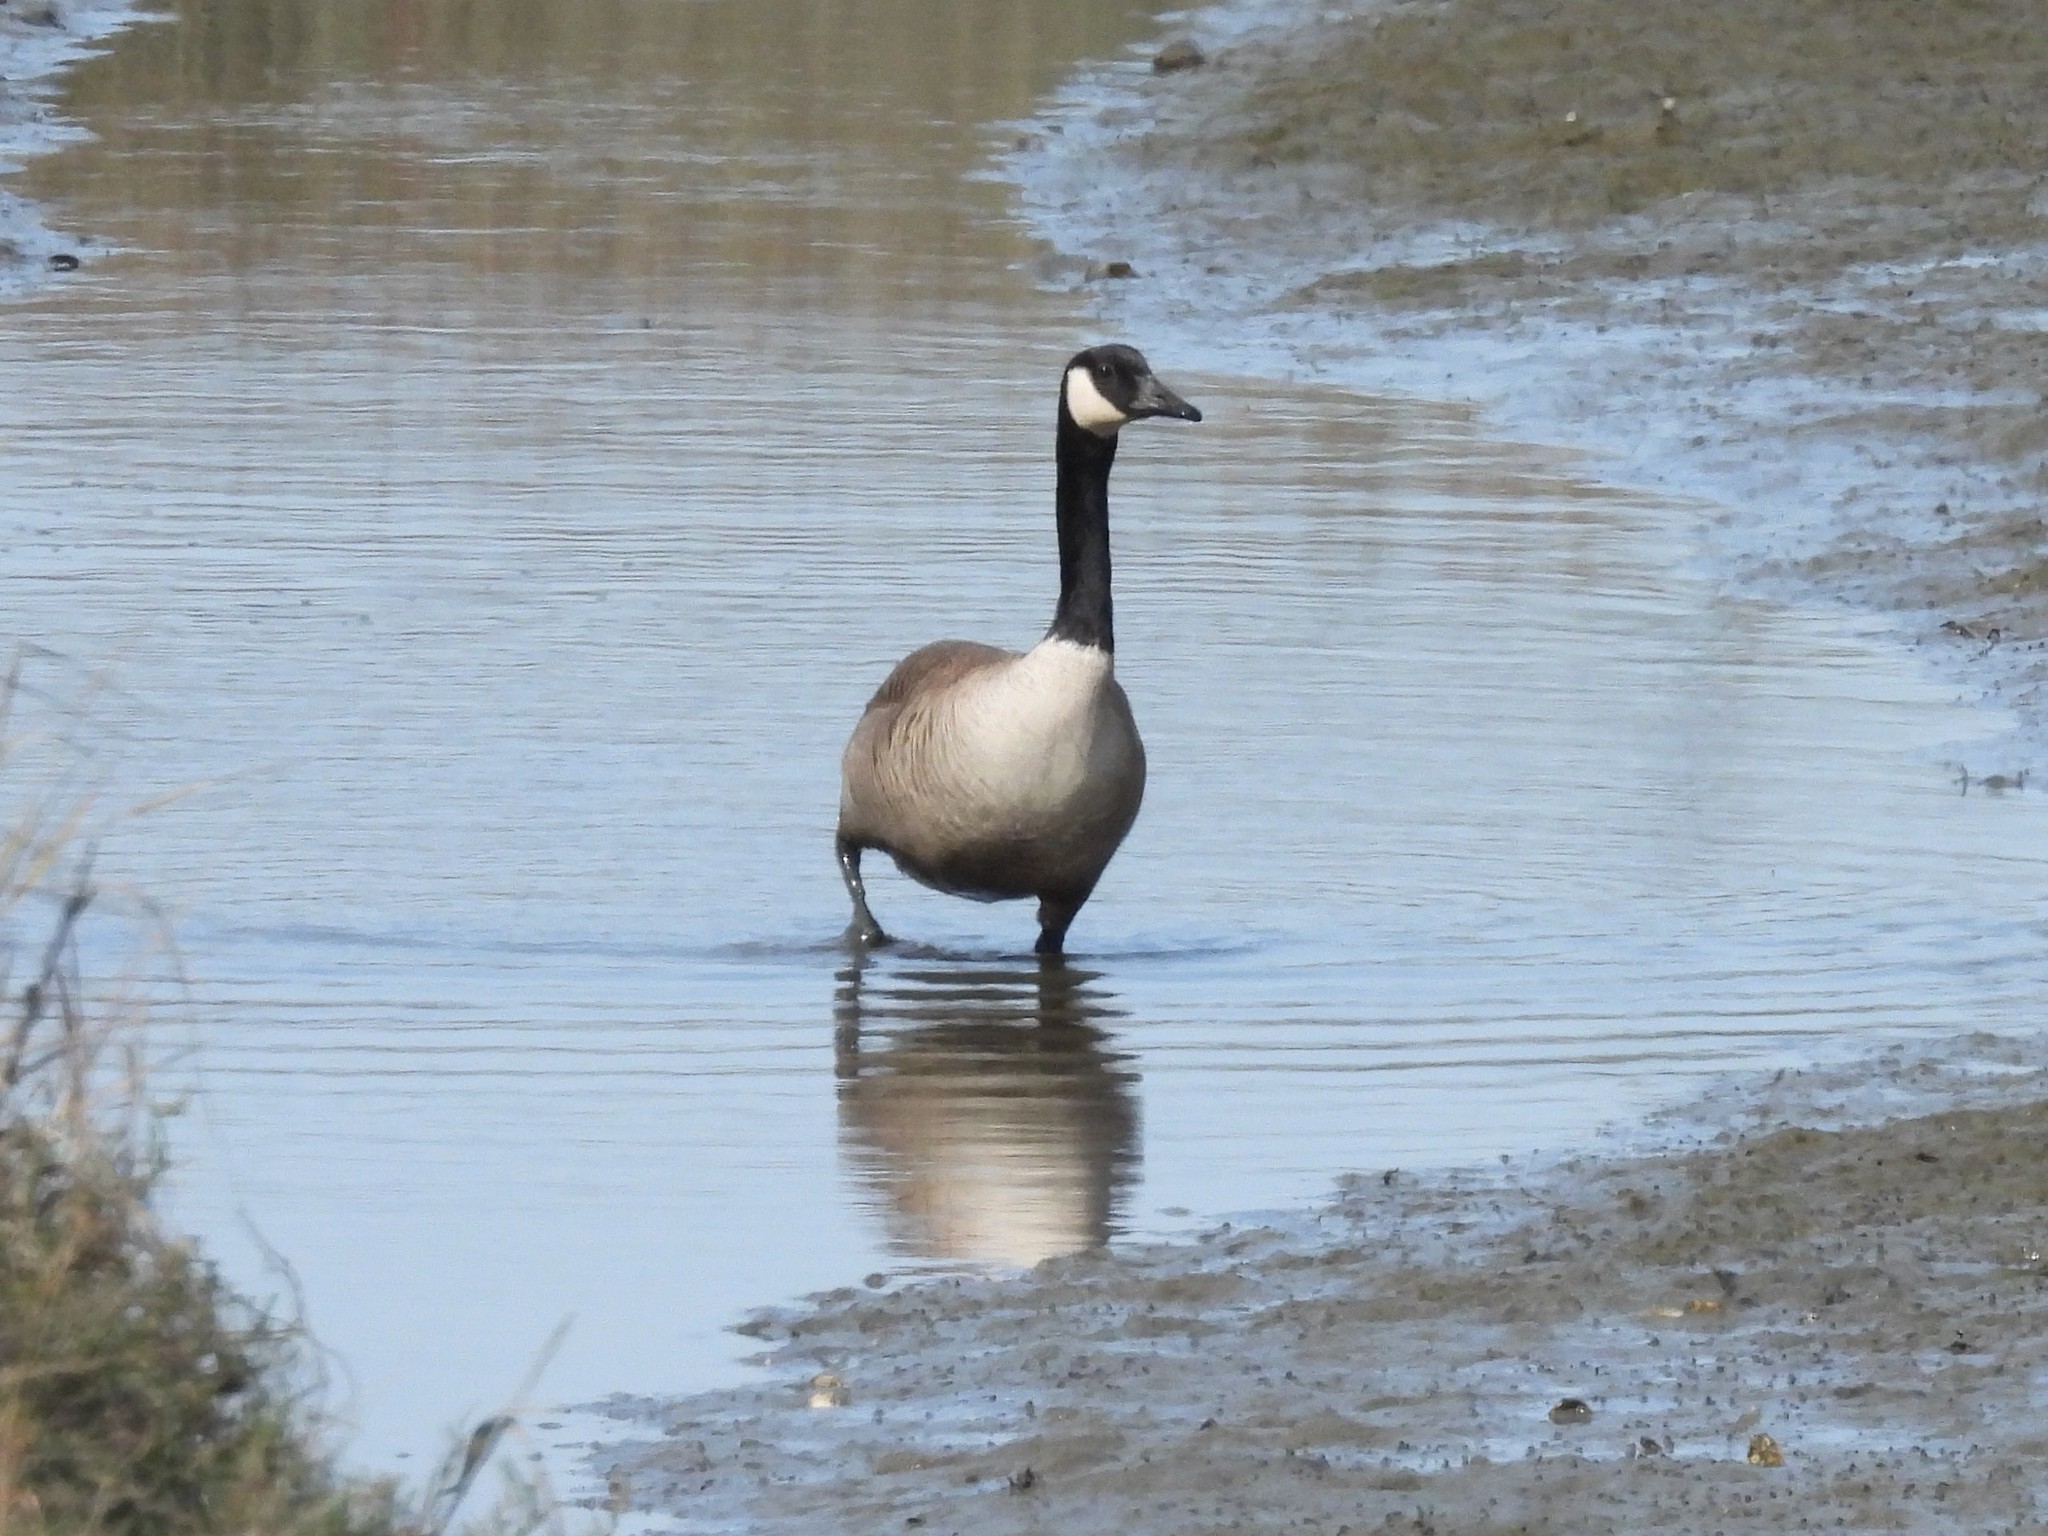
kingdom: Animalia
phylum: Chordata
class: Aves
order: Anseriformes
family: Anatidae
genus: Branta
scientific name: Branta canadensis
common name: Canada goose
